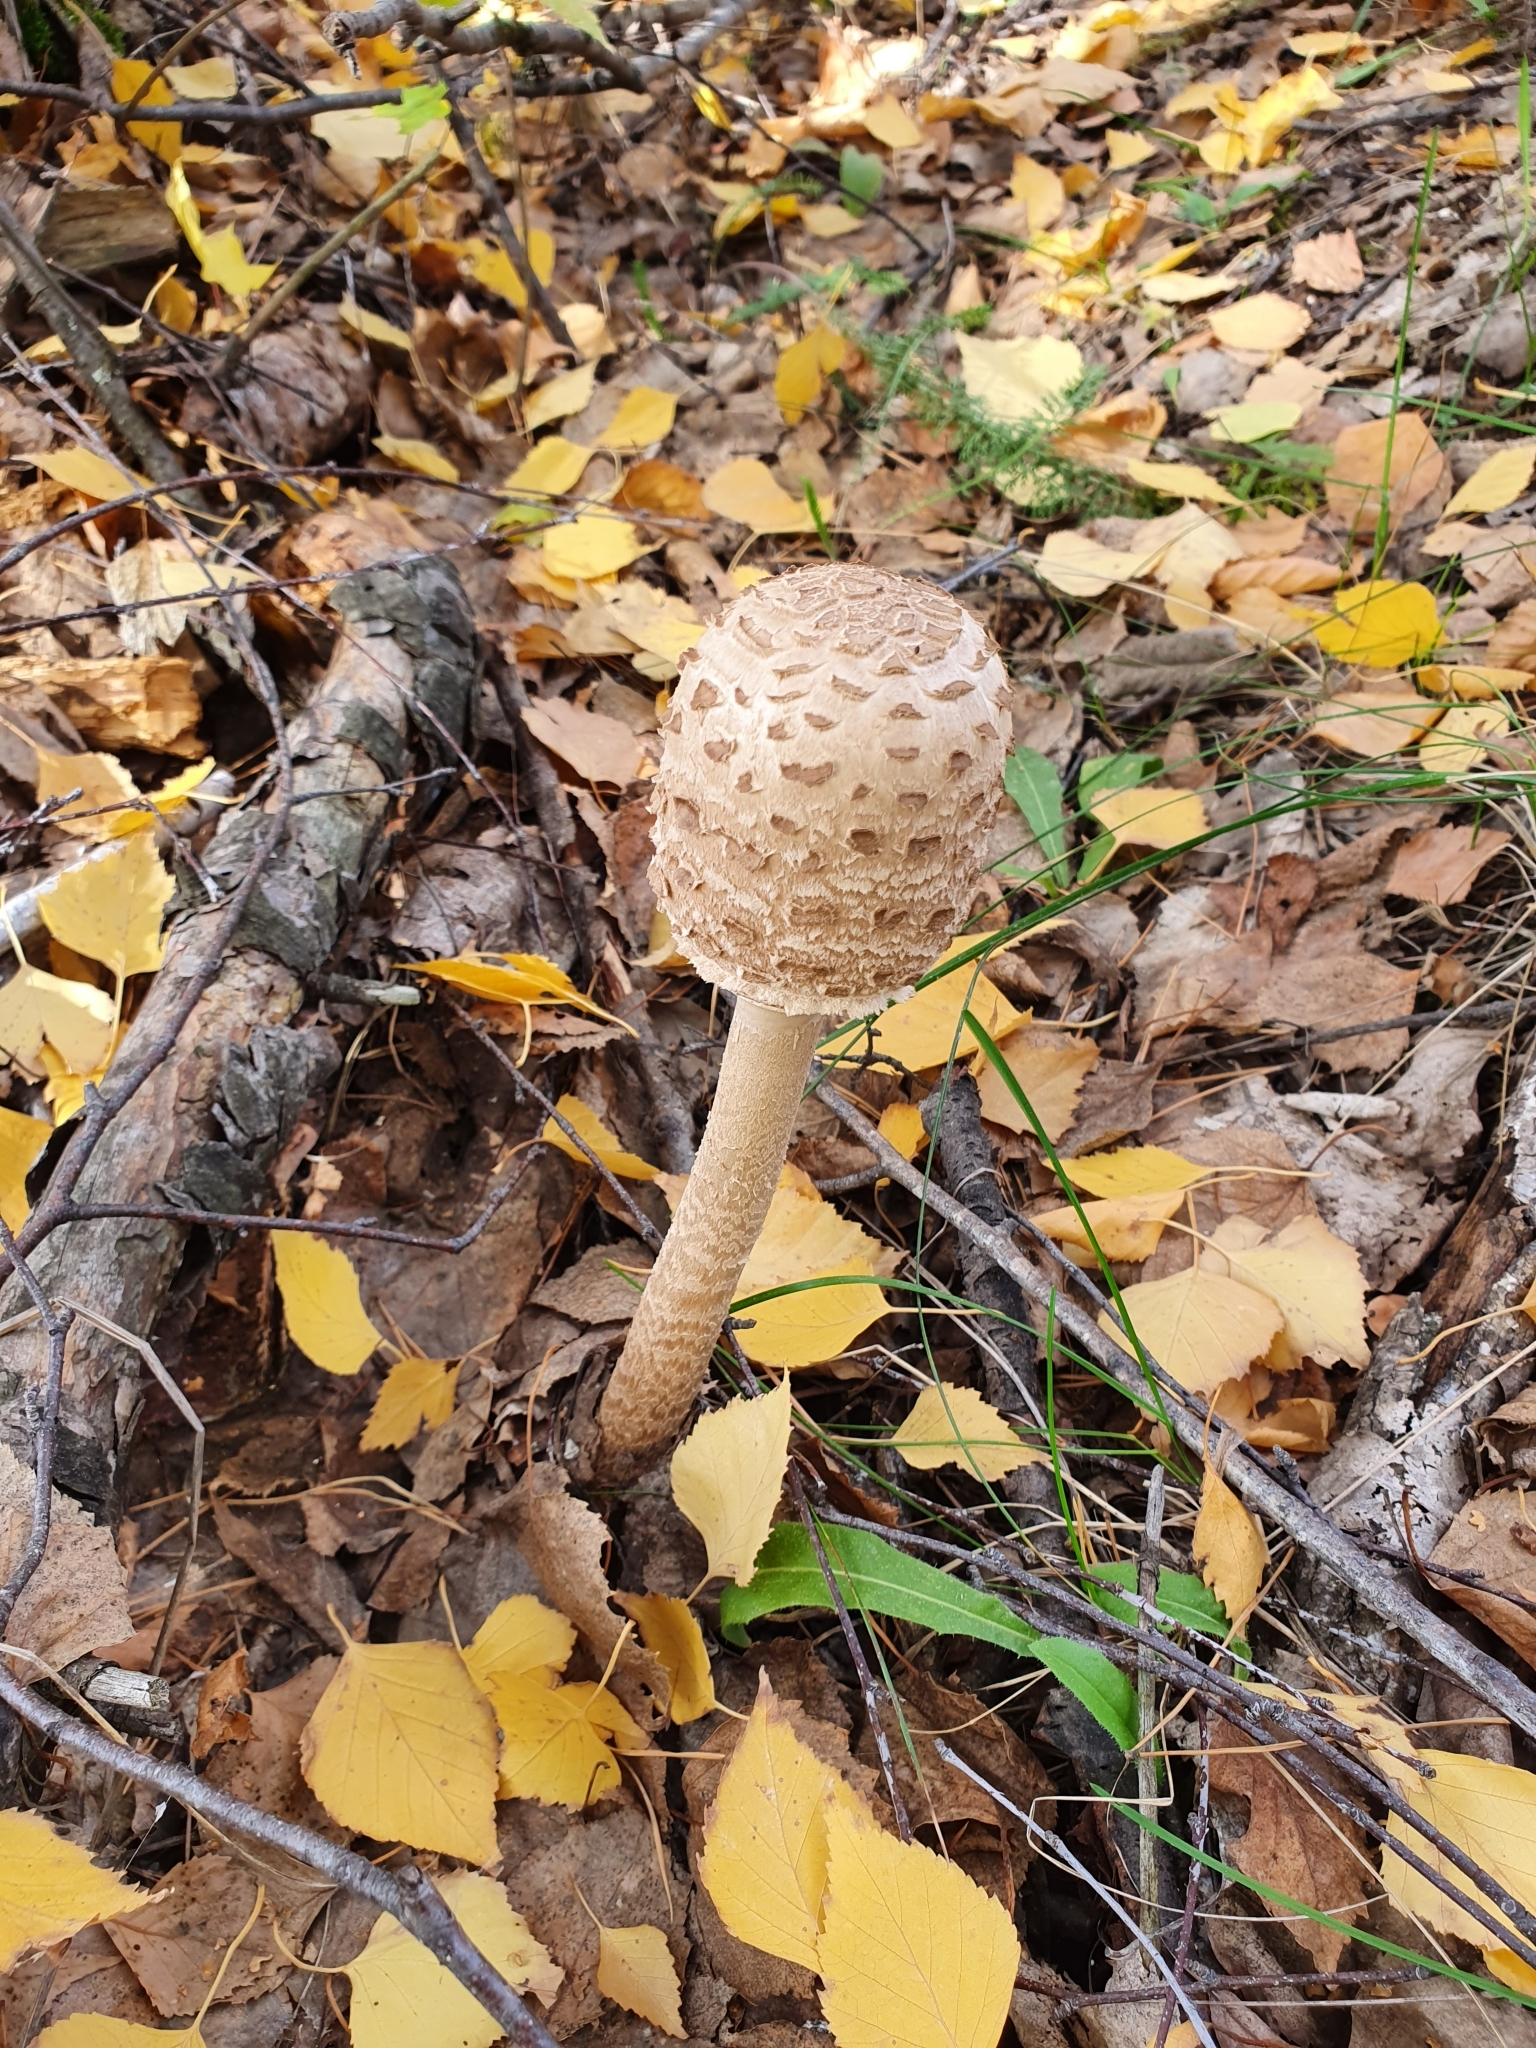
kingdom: Fungi
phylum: Basidiomycota
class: Agaricomycetes
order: Agaricales
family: Agaricaceae
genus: Macrolepiota
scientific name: Macrolepiota procera
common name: Parasol
